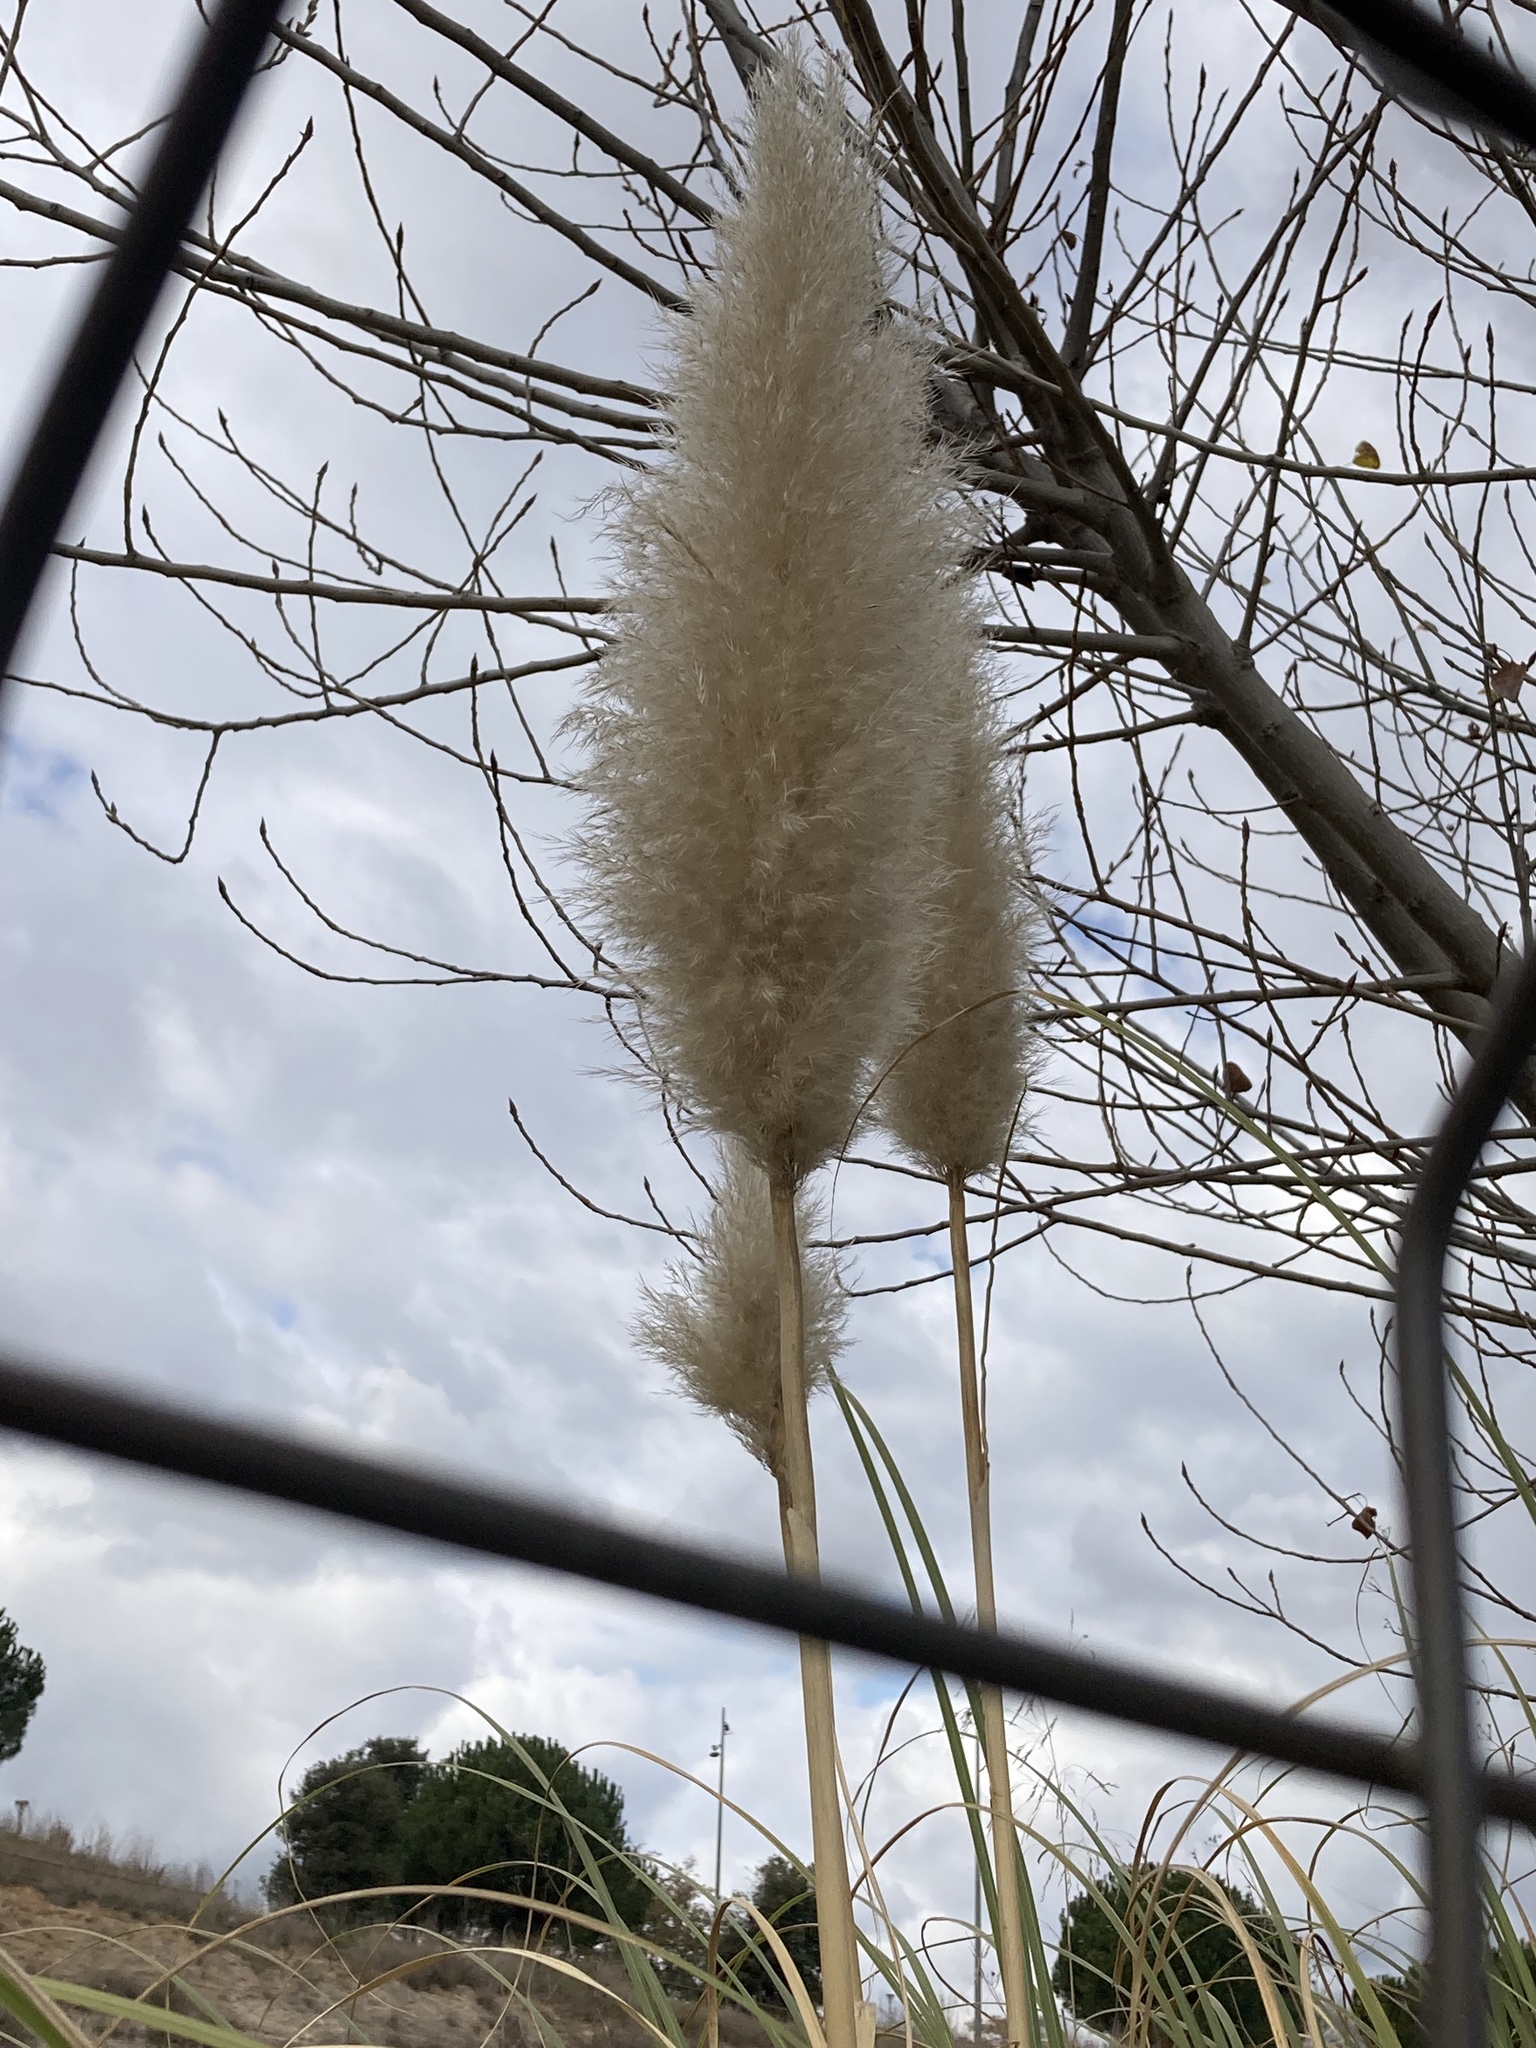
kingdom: Plantae
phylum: Tracheophyta
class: Liliopsida
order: Poales
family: Poaceae
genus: Cortaderia
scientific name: Cortaderia selloana
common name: Uruguayan pampas grass
